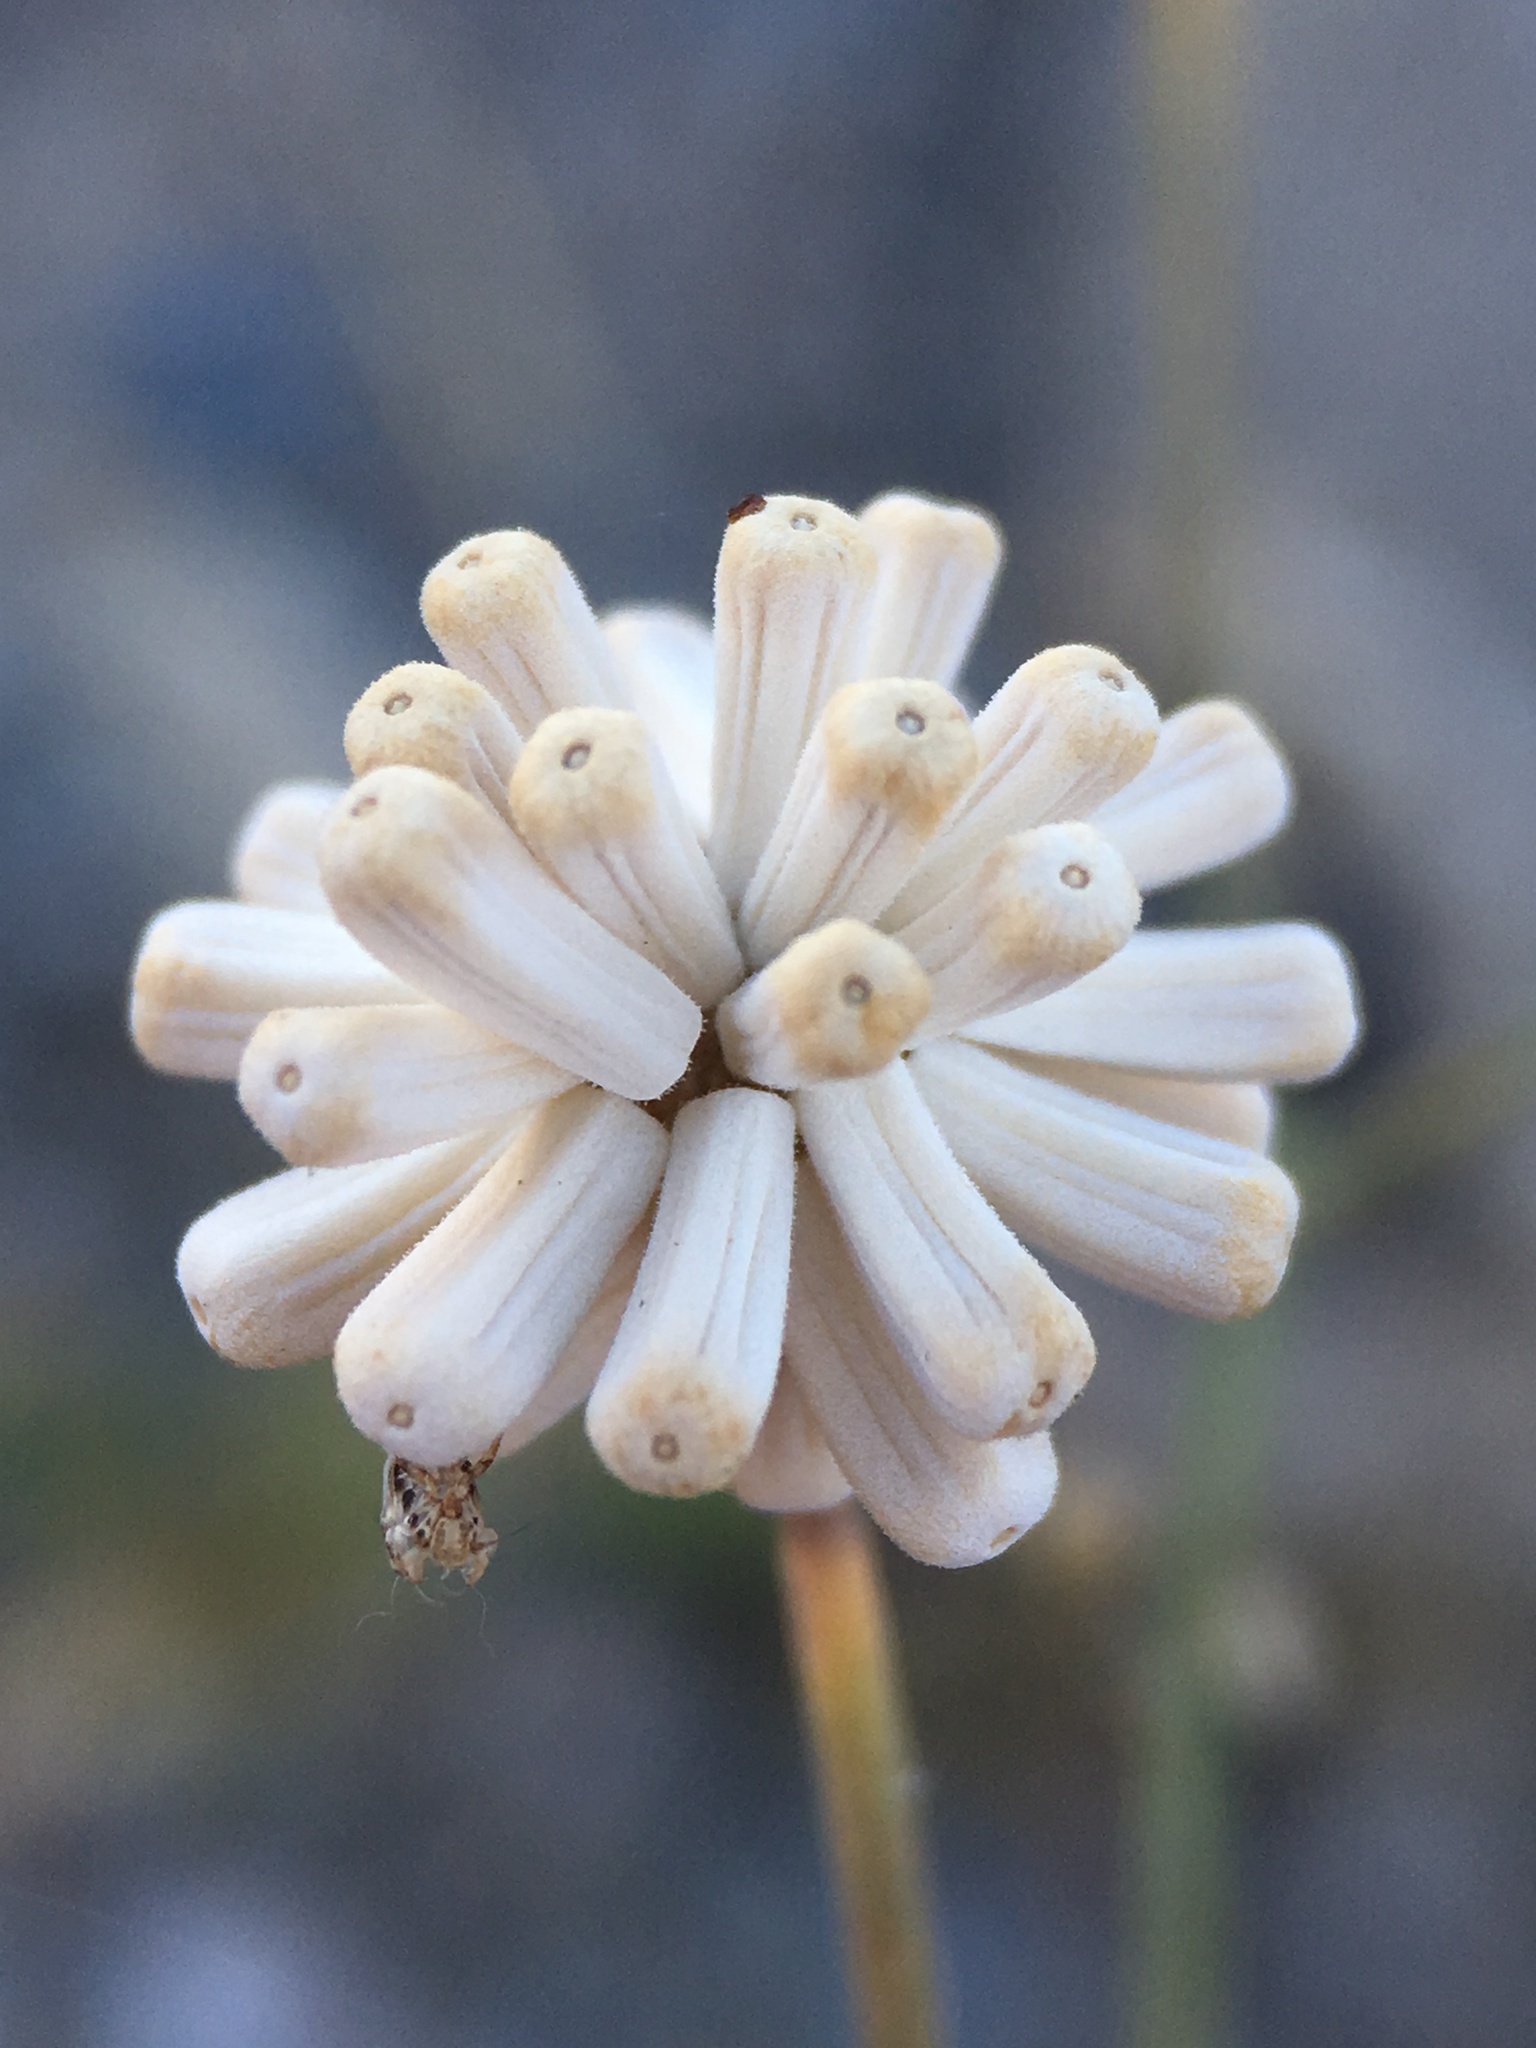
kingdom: Plantae
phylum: Tracheophyta
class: Magnoliopsida
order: Asterales
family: Asteraceae
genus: Atrichoseris
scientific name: Atrichoseris platyphylla
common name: Tobaccoweed
